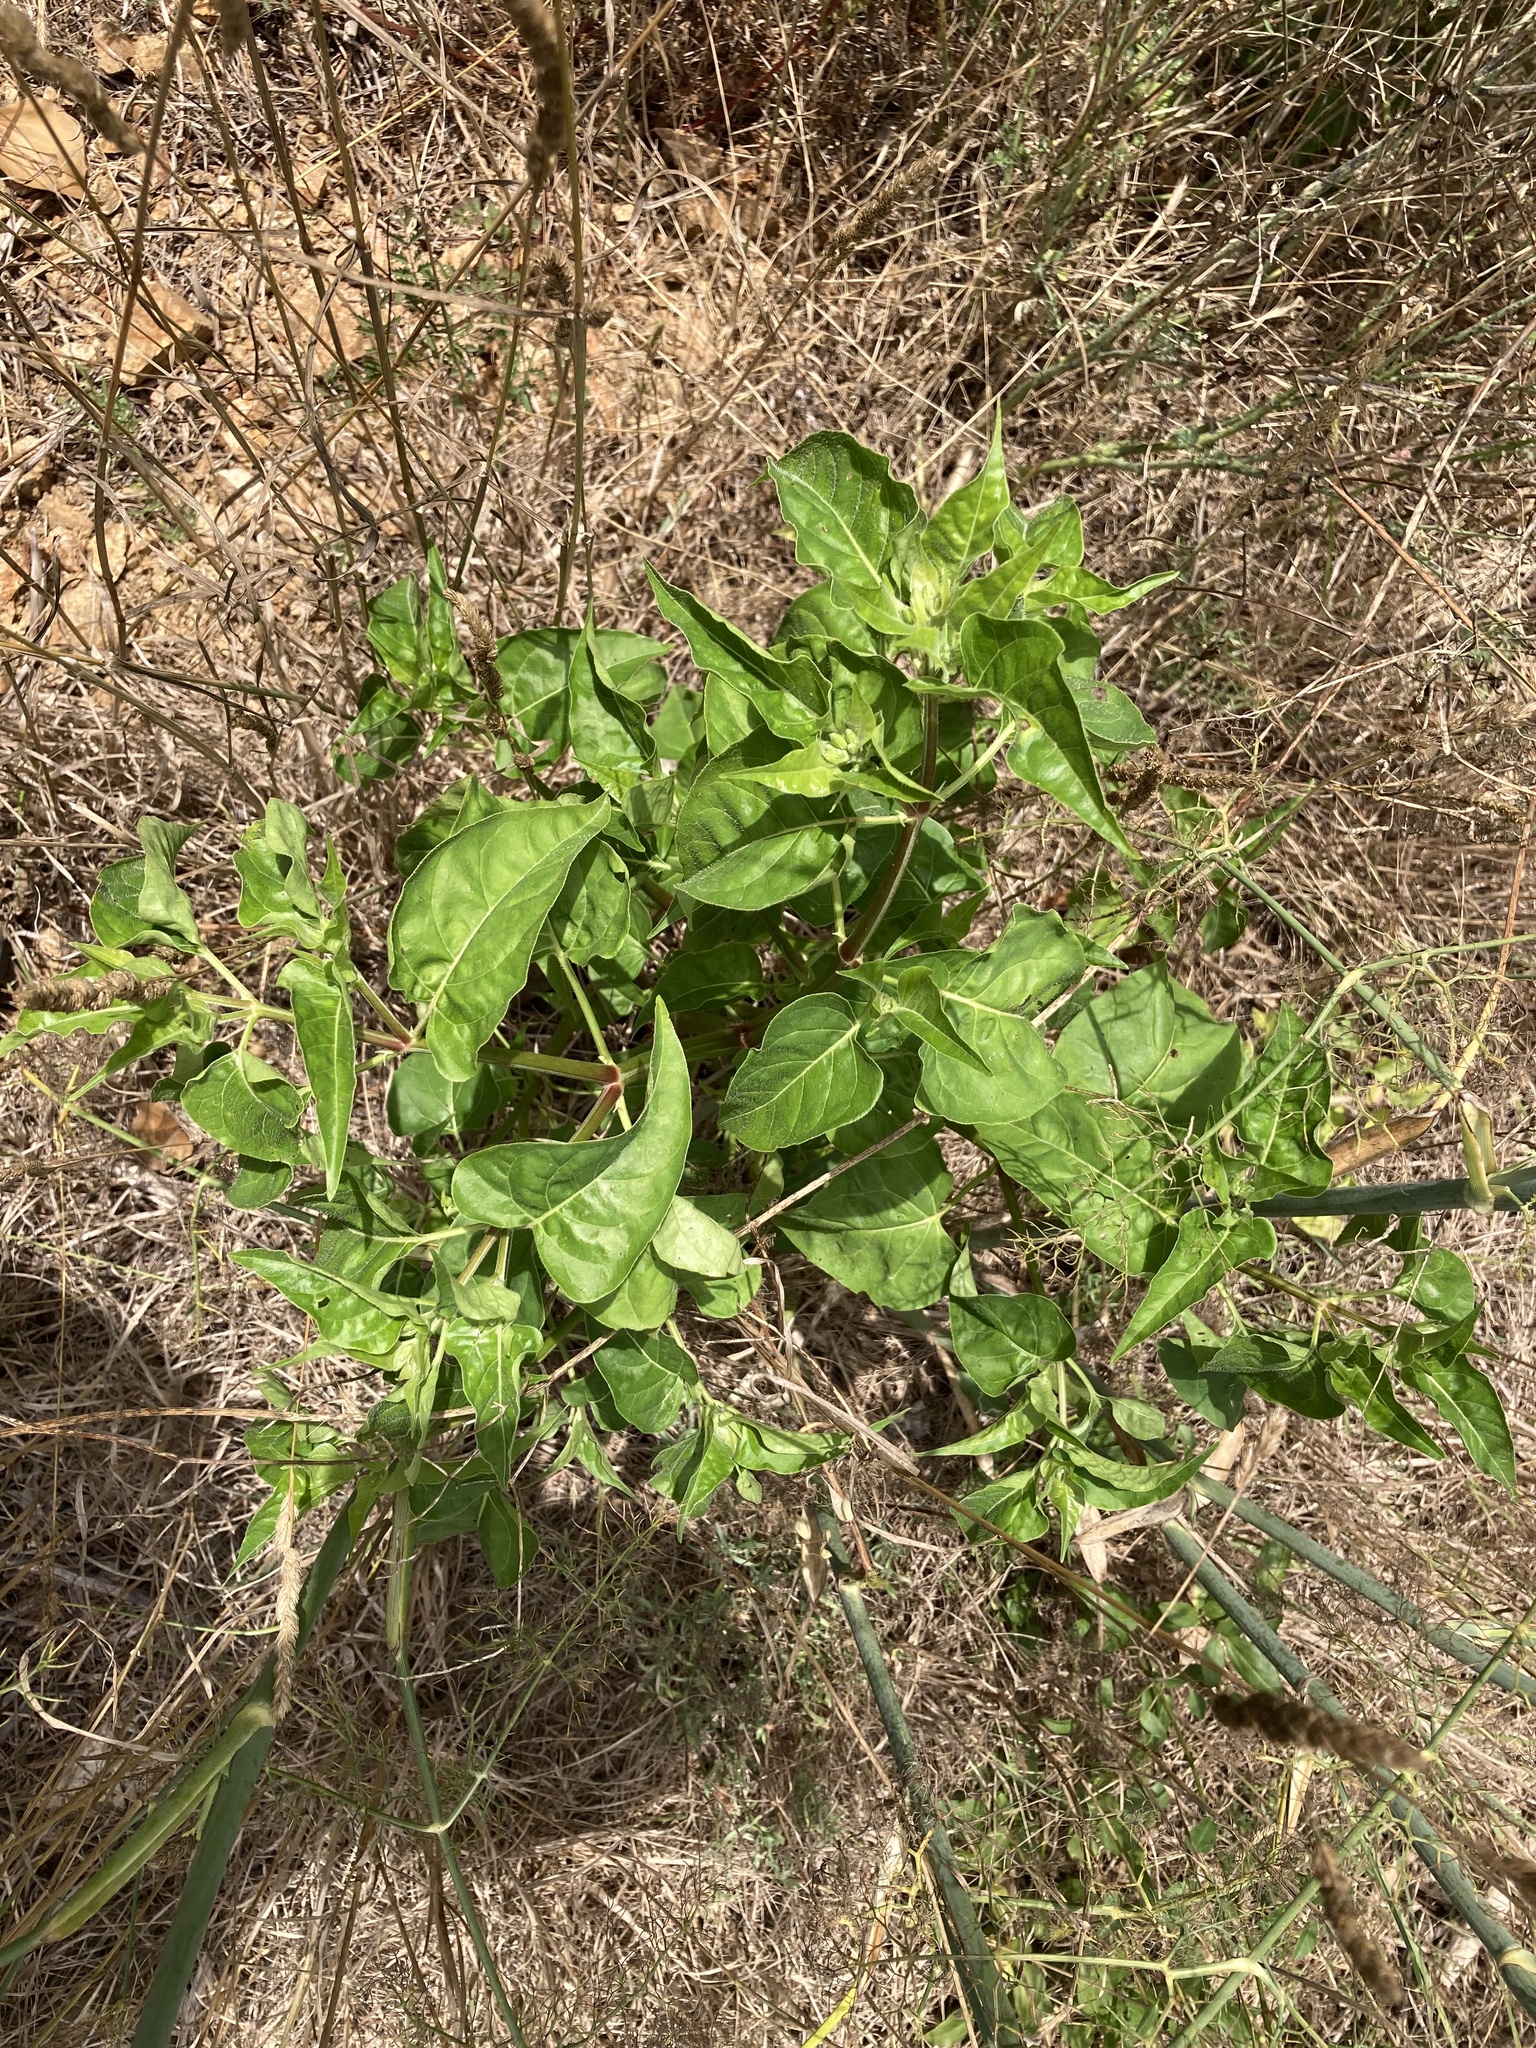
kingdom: Plantae
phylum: Tracheophyta
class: Magnoliopsida
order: Caryophyllales
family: Nyctaginaceae
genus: Mirabilis
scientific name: Mirabilis jalapa
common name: Marvel-of-peru
